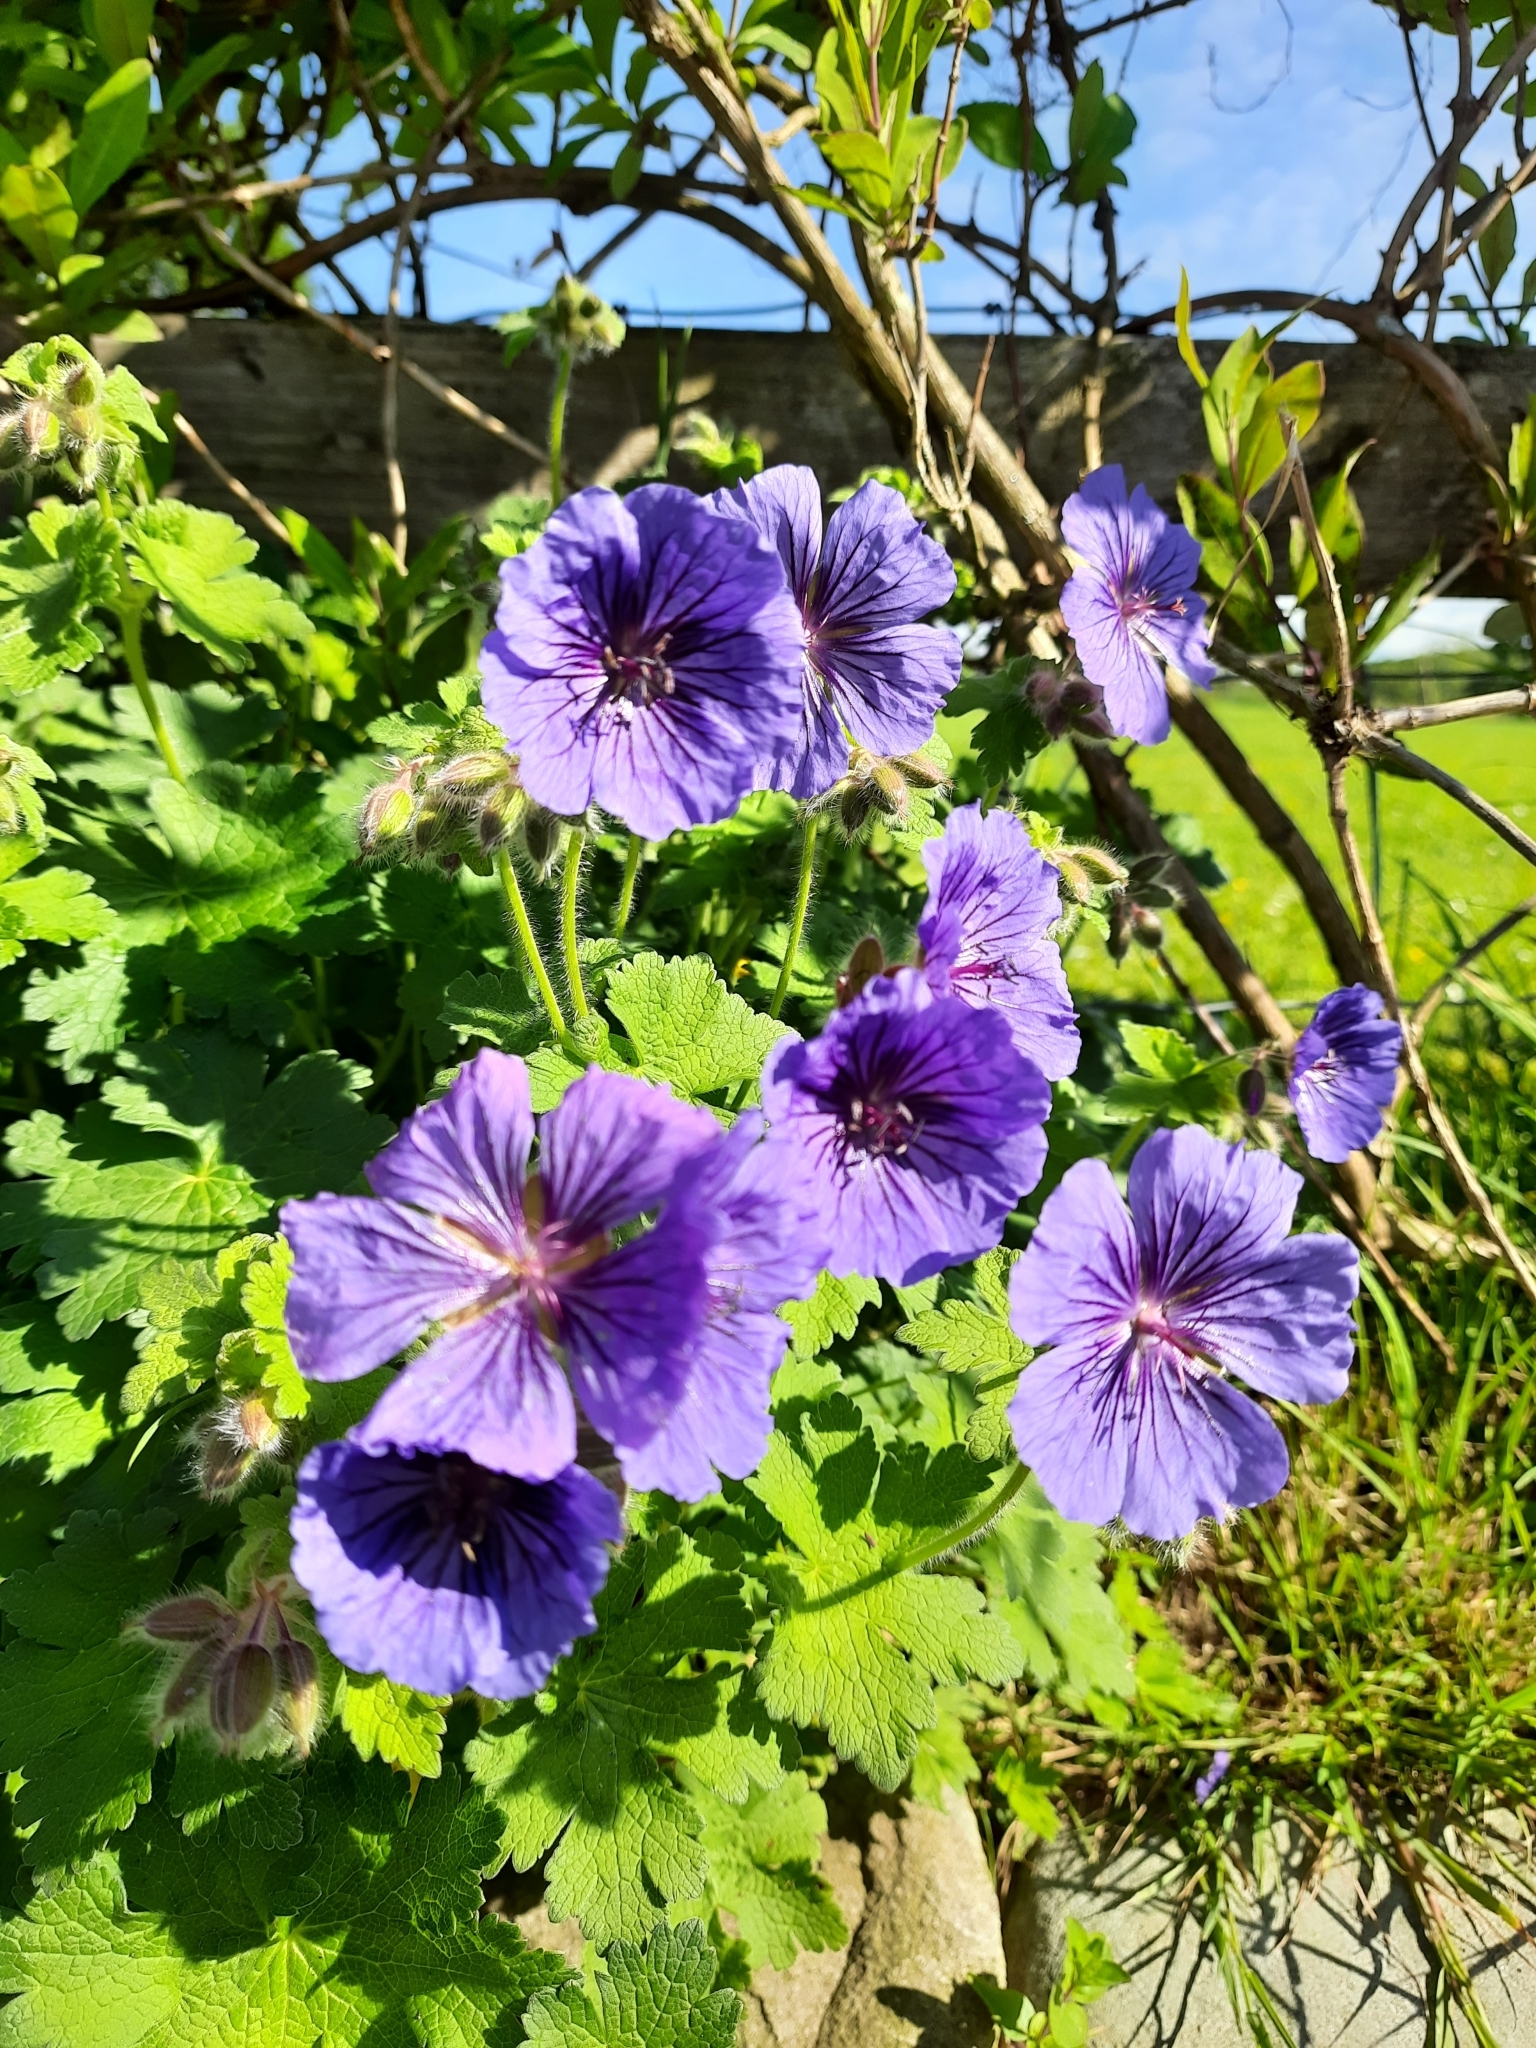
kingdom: Plantae
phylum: Tracheophyta
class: Magnoliopsida
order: Geraniales
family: Geraniaceae
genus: Geranium
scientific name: Geranium magnificum
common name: Purple crane's-bill
